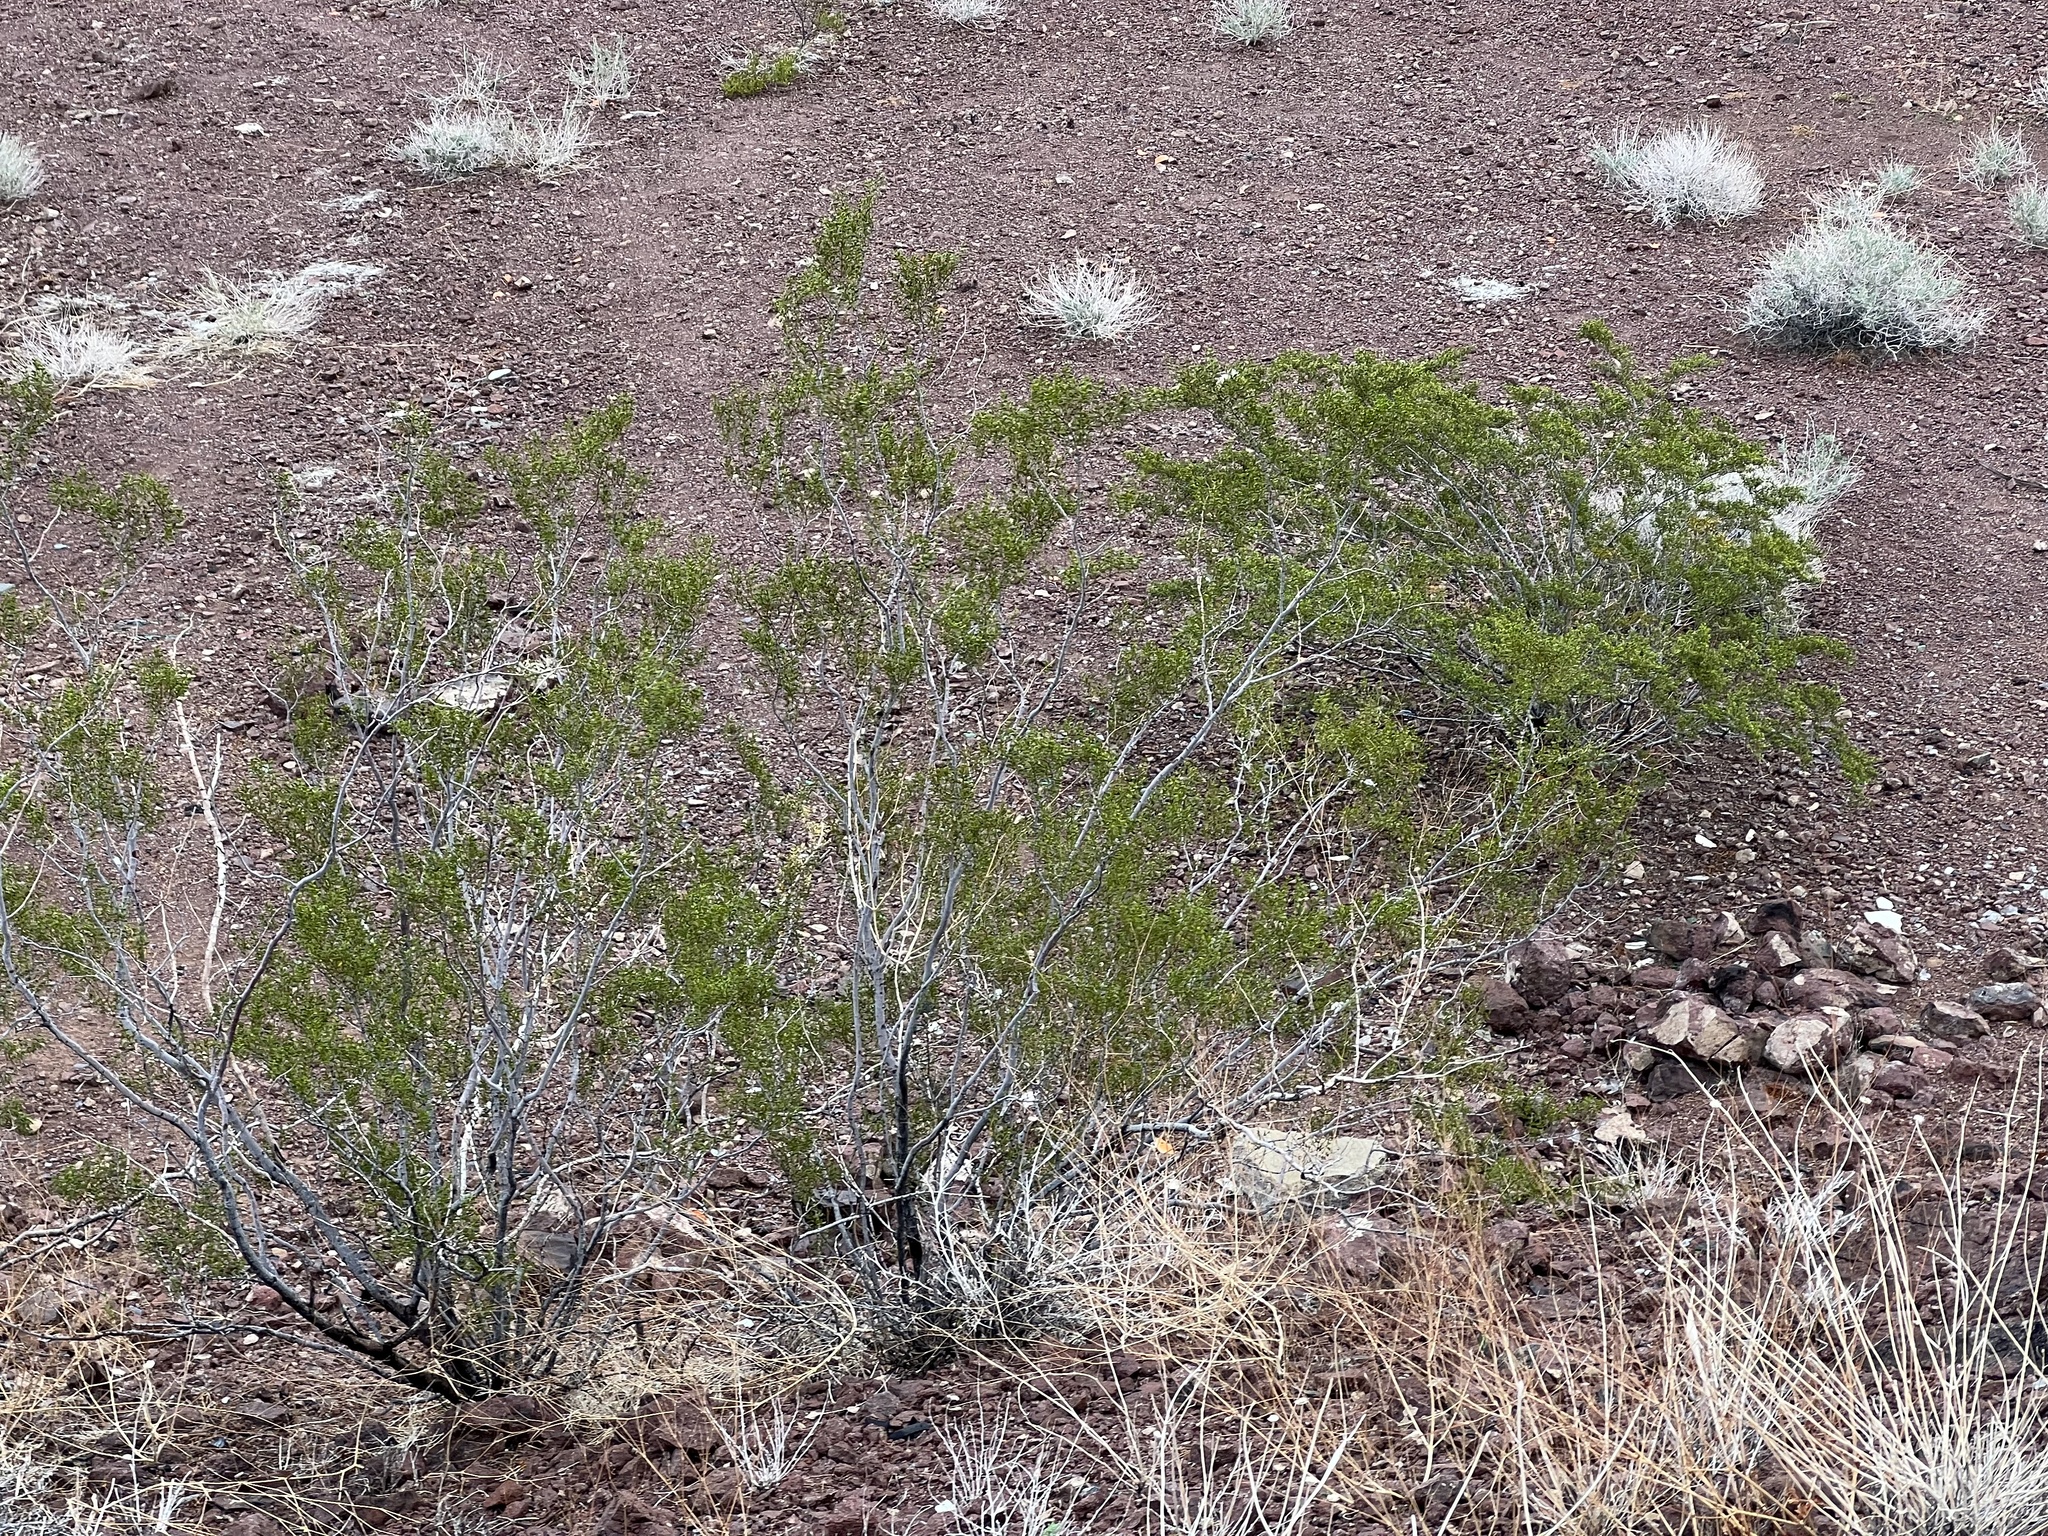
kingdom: Plantae
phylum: Tracheophyta
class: Magnoliopsida
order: Zygophyllales
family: Zygophyllaceae
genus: Larrea
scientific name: Larrea tridentata
